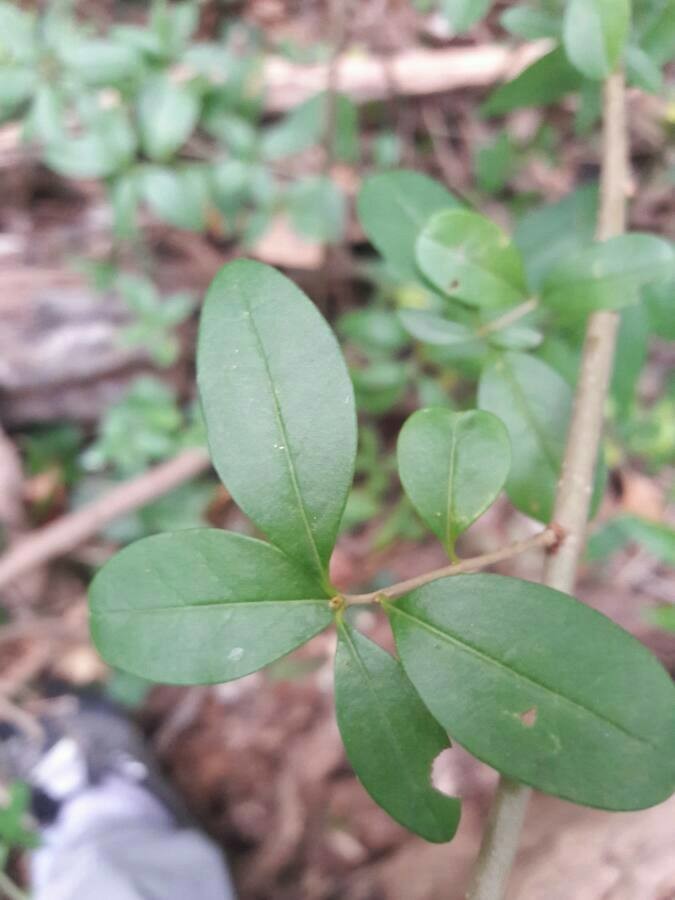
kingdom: Plantae
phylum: Tracheophyta
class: Magnoliopsida
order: Lamiales
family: Oleaceae
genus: Ligustrum
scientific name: Ligustrum vulgare
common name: Wild privet
